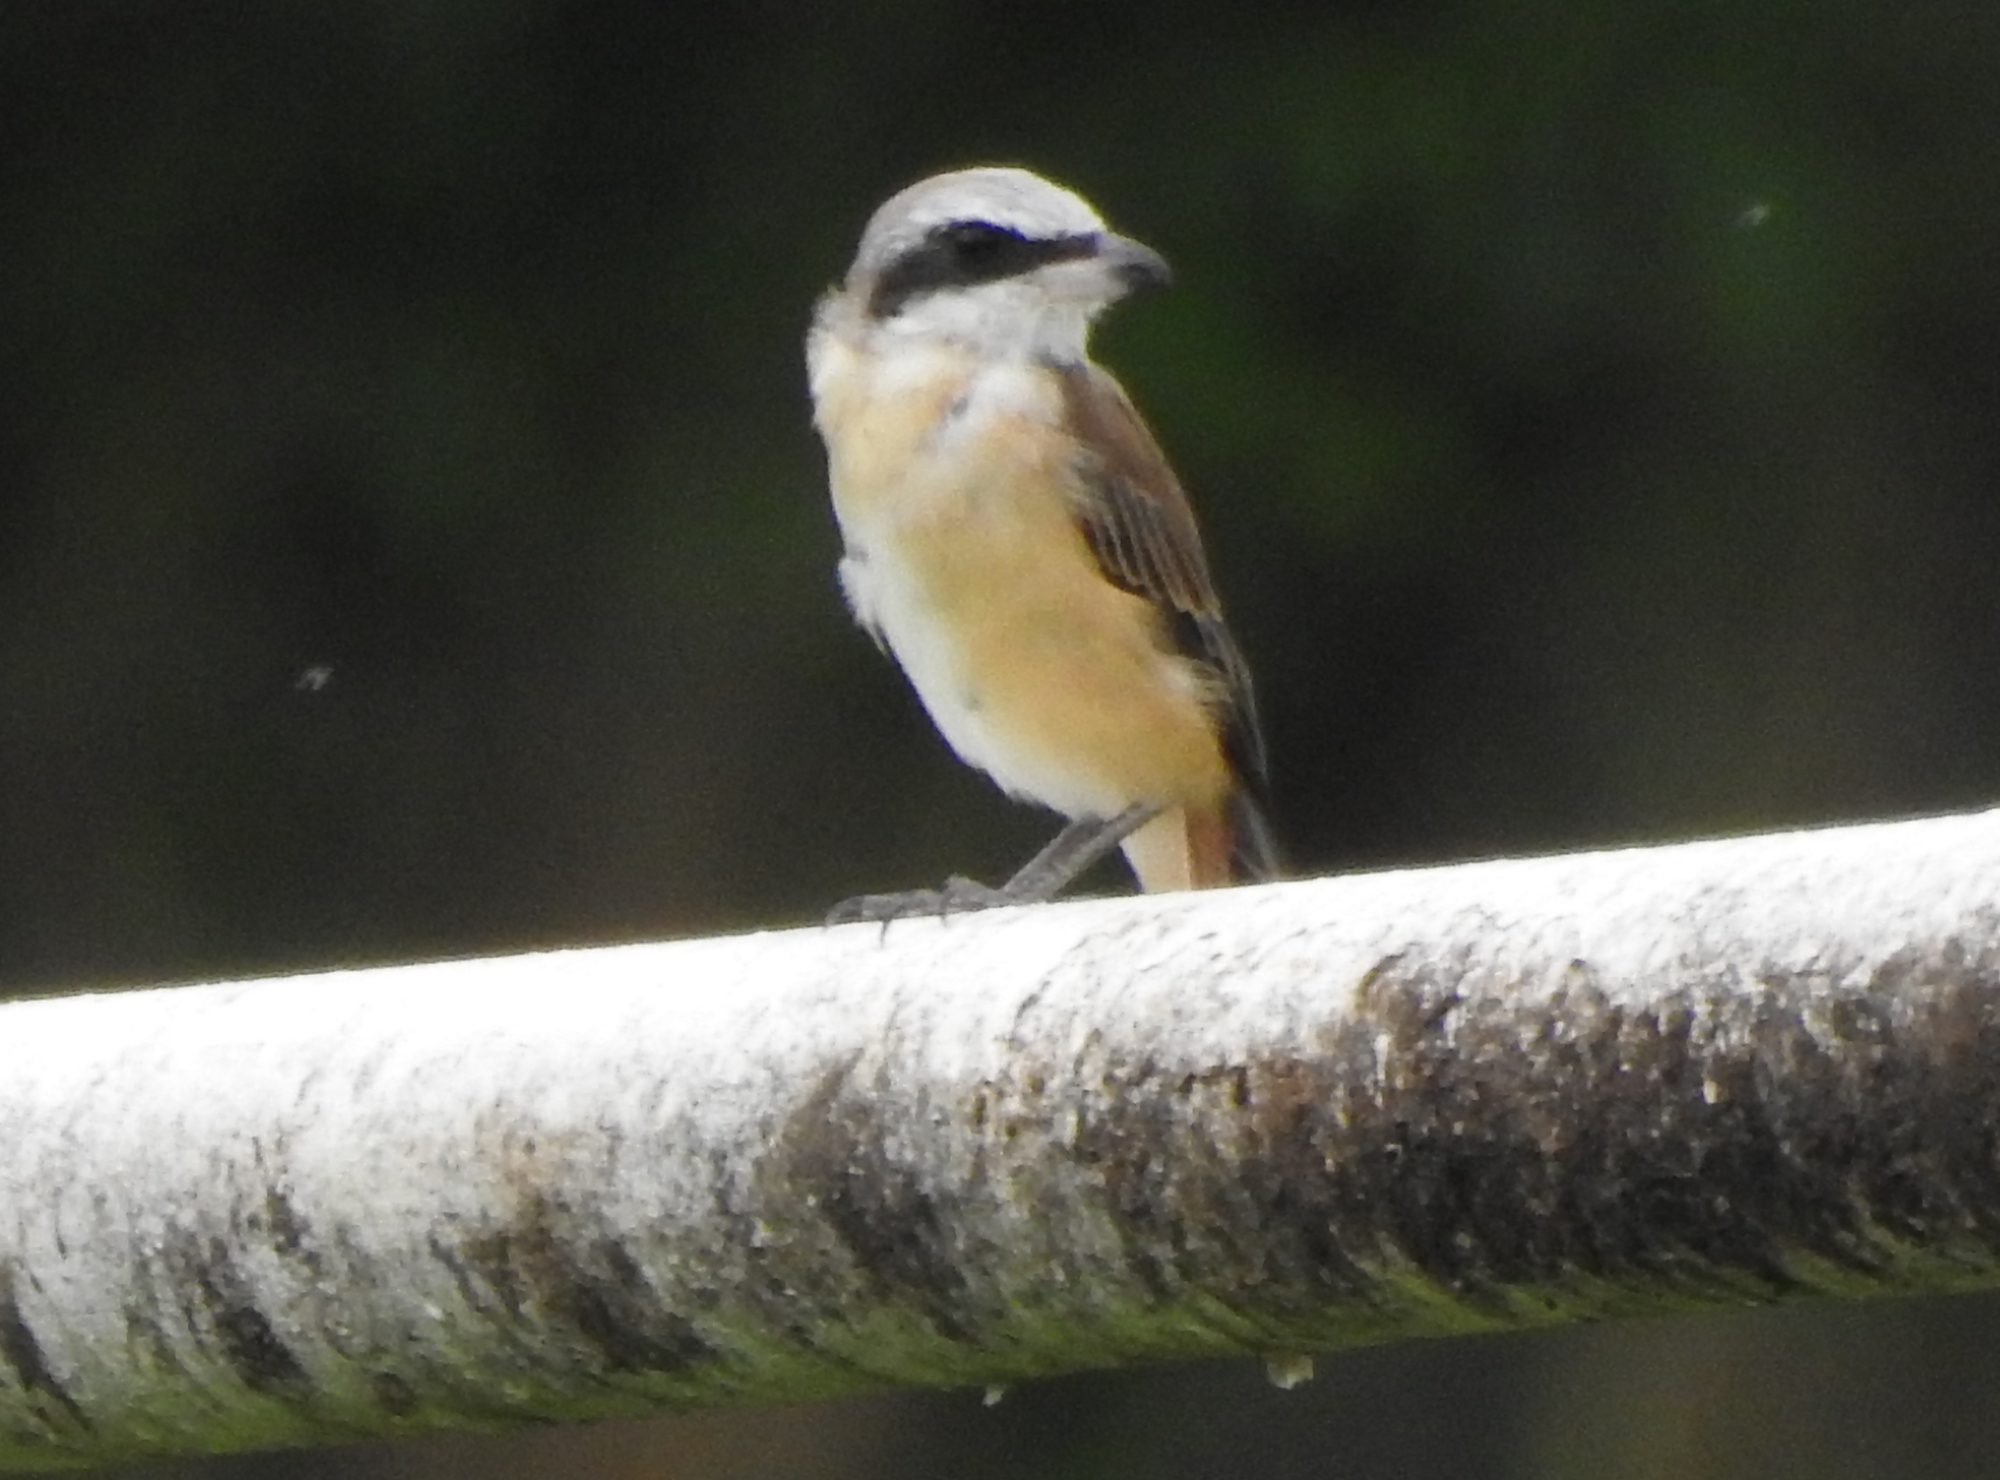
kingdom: Animalia
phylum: Chordata
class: Aves
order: Passeriformes
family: Laniidae
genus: Lanius
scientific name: Lanius cristatus
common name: Brown shrike
